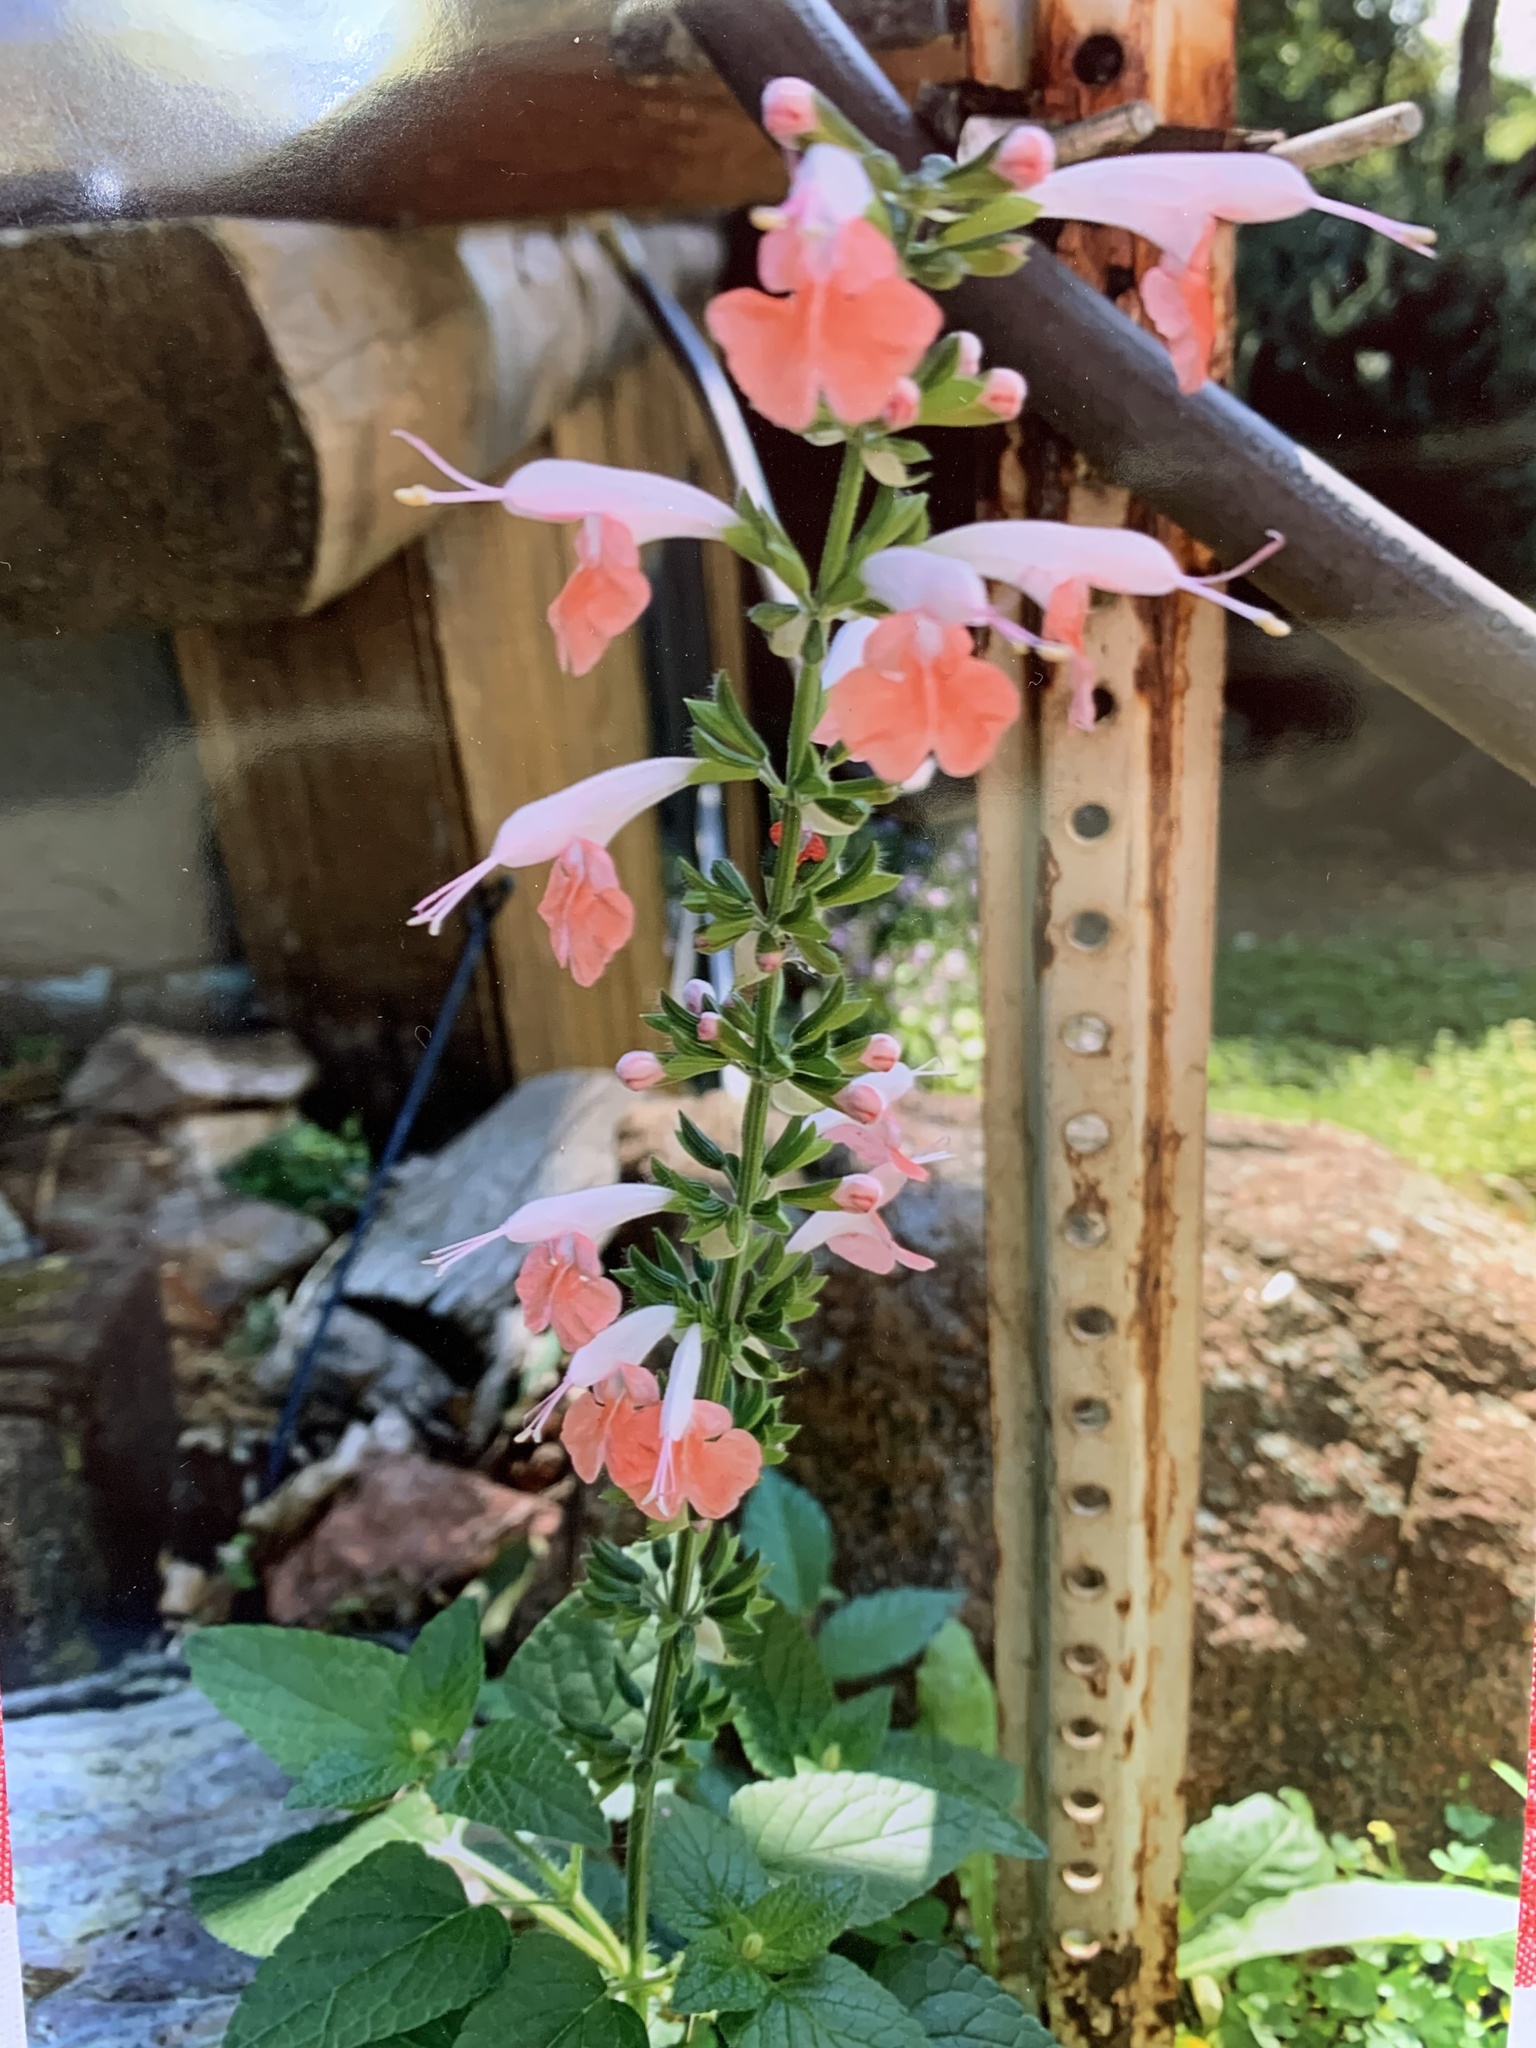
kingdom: Plantae
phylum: Tracheophyta
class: Magnoliopsida
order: Lamiales
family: Lamiaceae
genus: Salvia
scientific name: Salvia coccinea
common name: Blood sage
